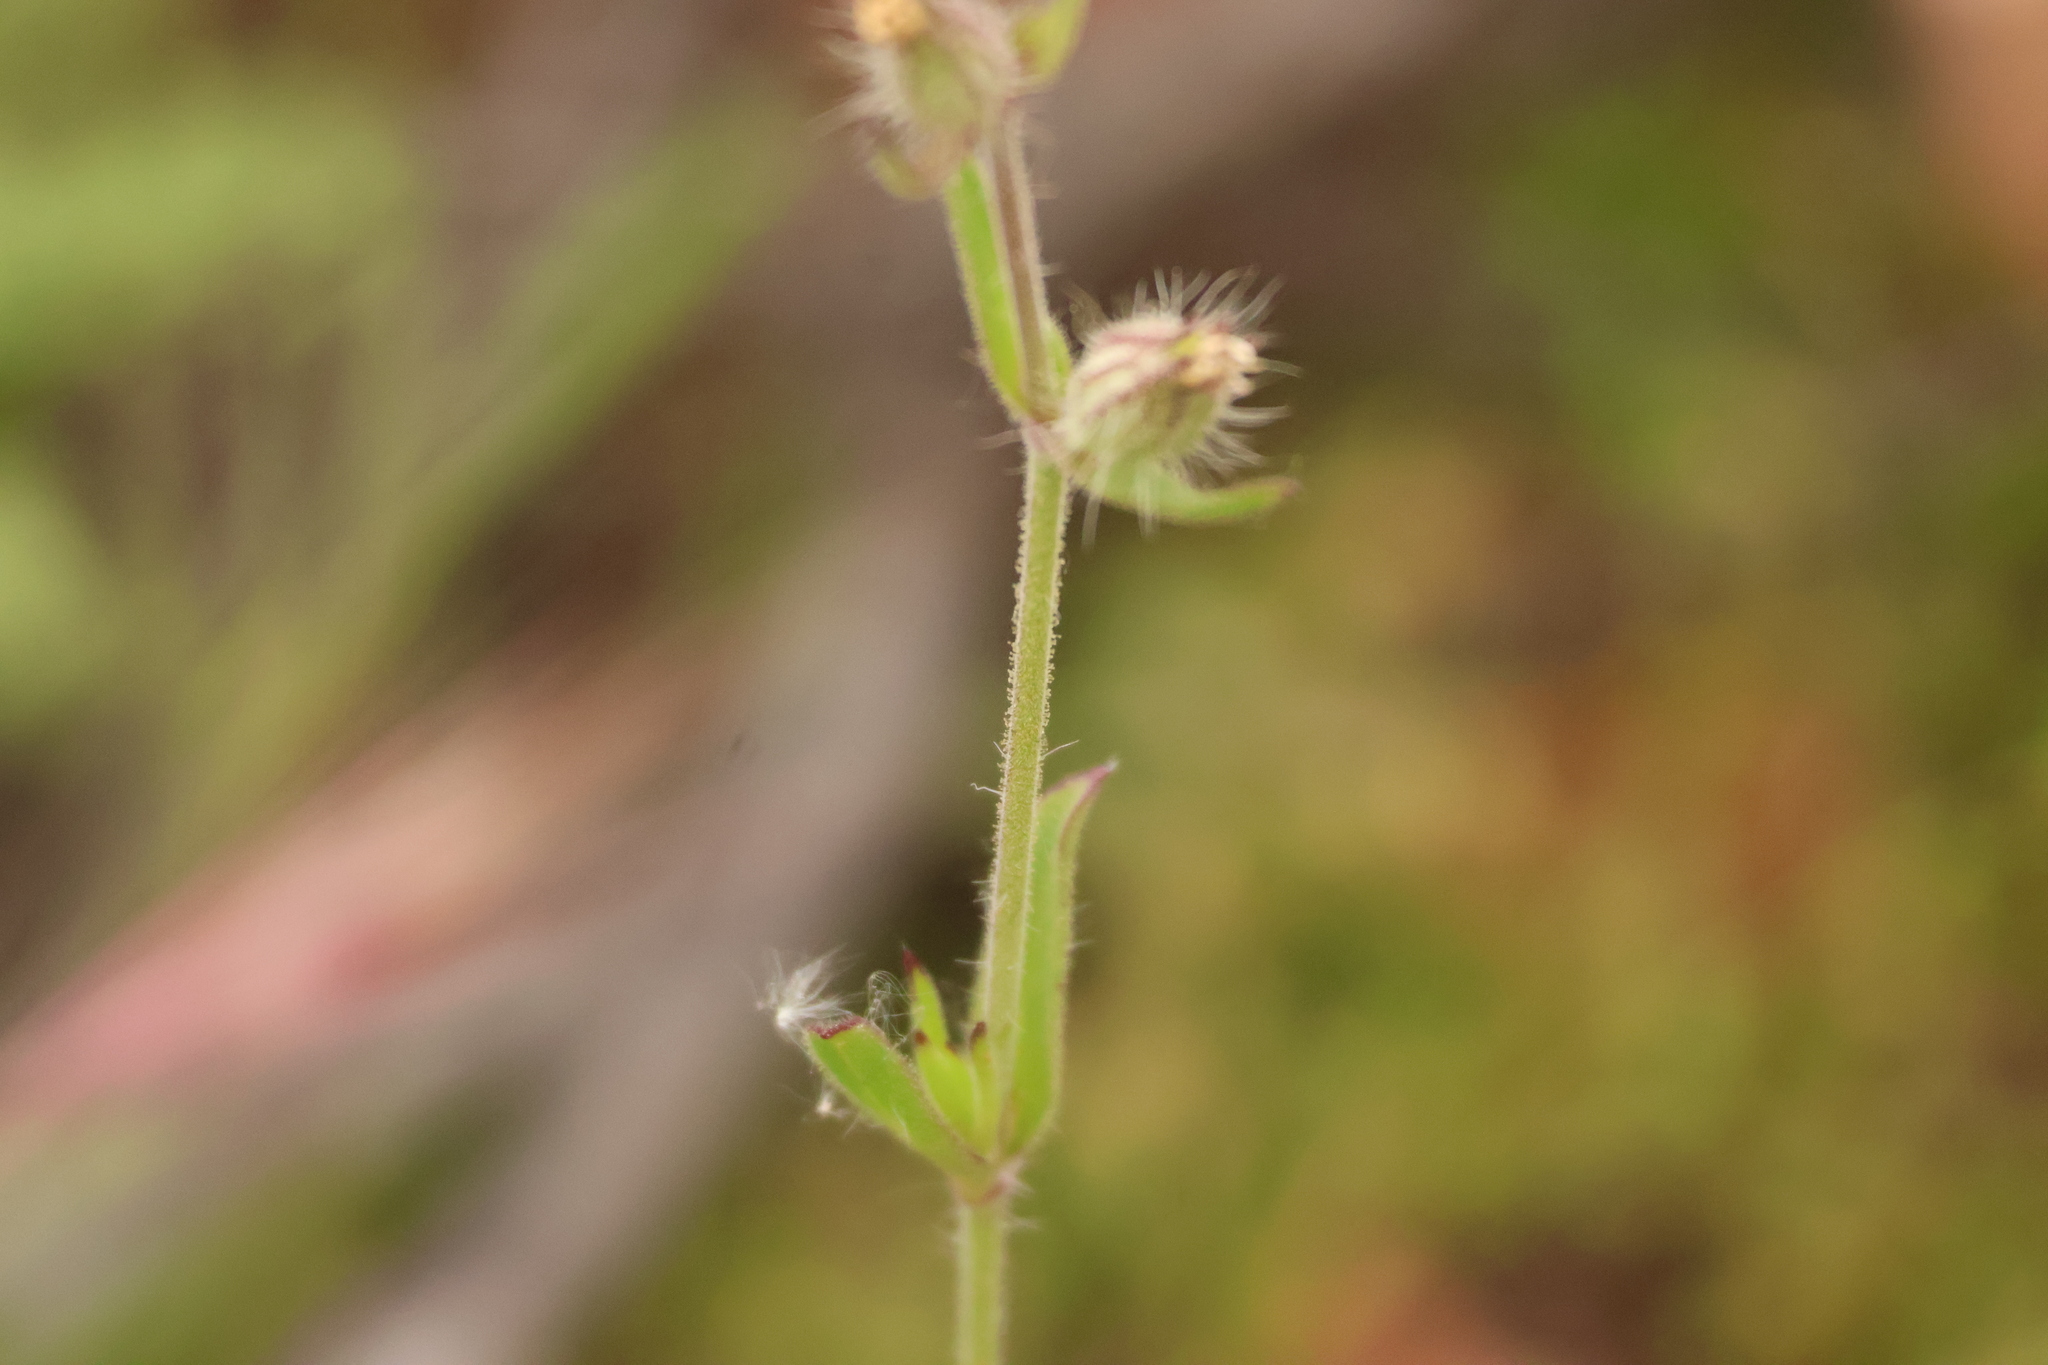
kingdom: Plantae
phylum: Tracheophyta
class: Magnoliopsida
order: Caryophyllales
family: Caryophyllaceae
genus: Silene
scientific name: Silene gallica
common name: Small-flowered catchfly
